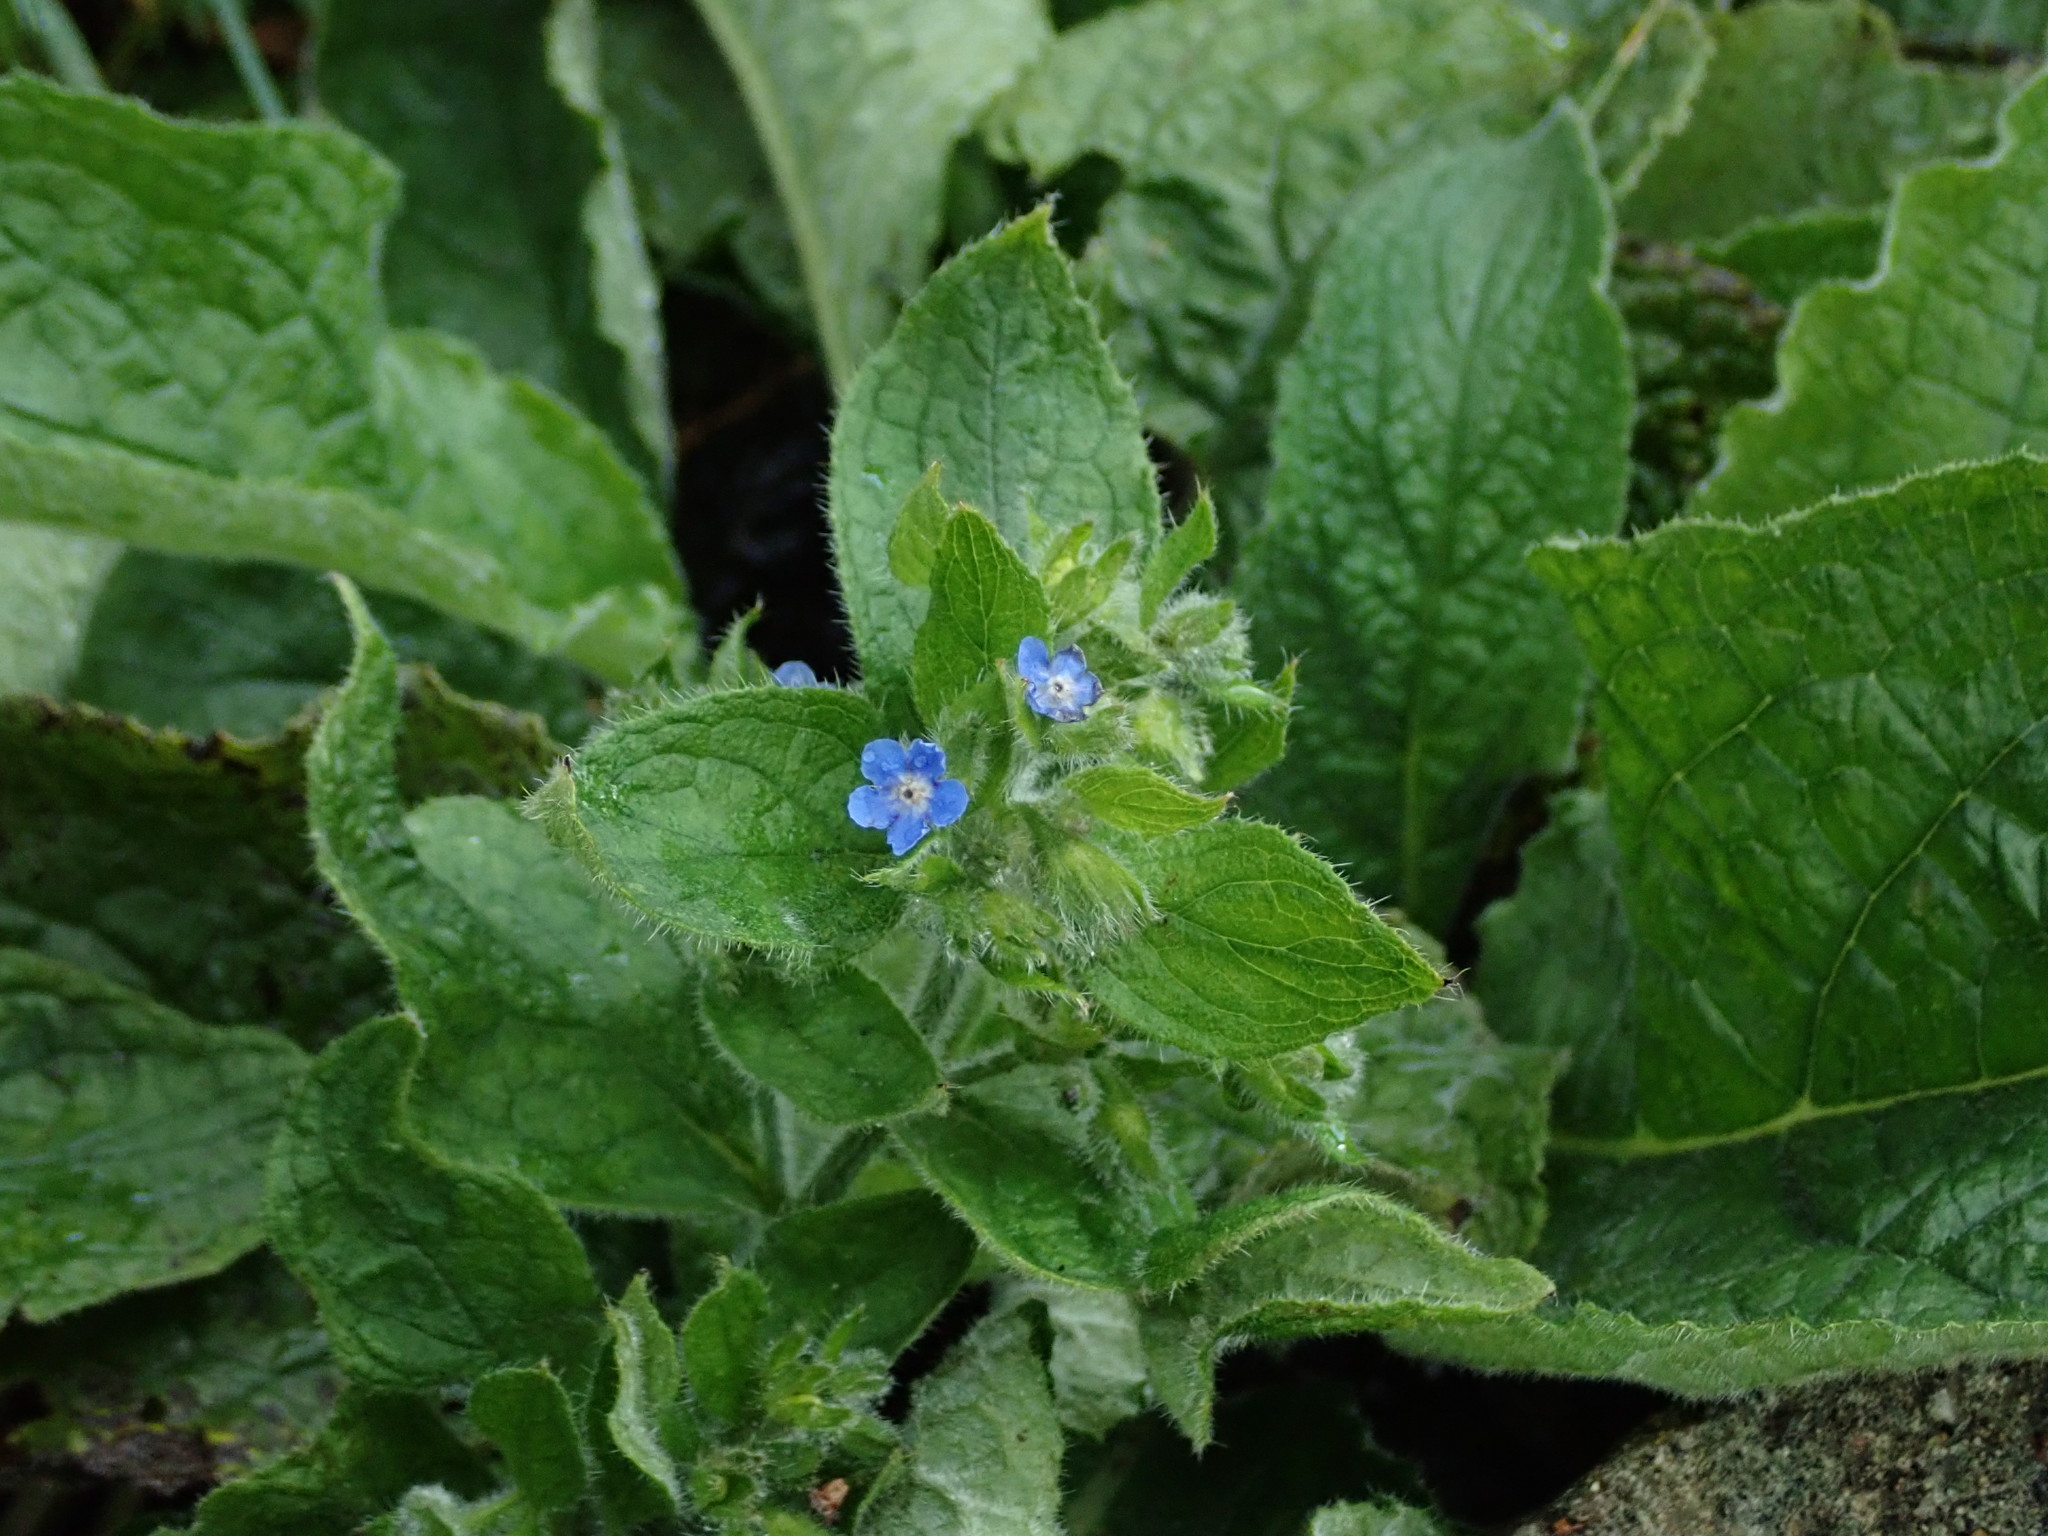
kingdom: Plantae
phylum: Tracheophyta
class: Magnoliopsida
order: Boraginales
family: Boraginaceae
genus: Pentaglottis
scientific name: Pentaglottis sempervirens
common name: Green alkanet
